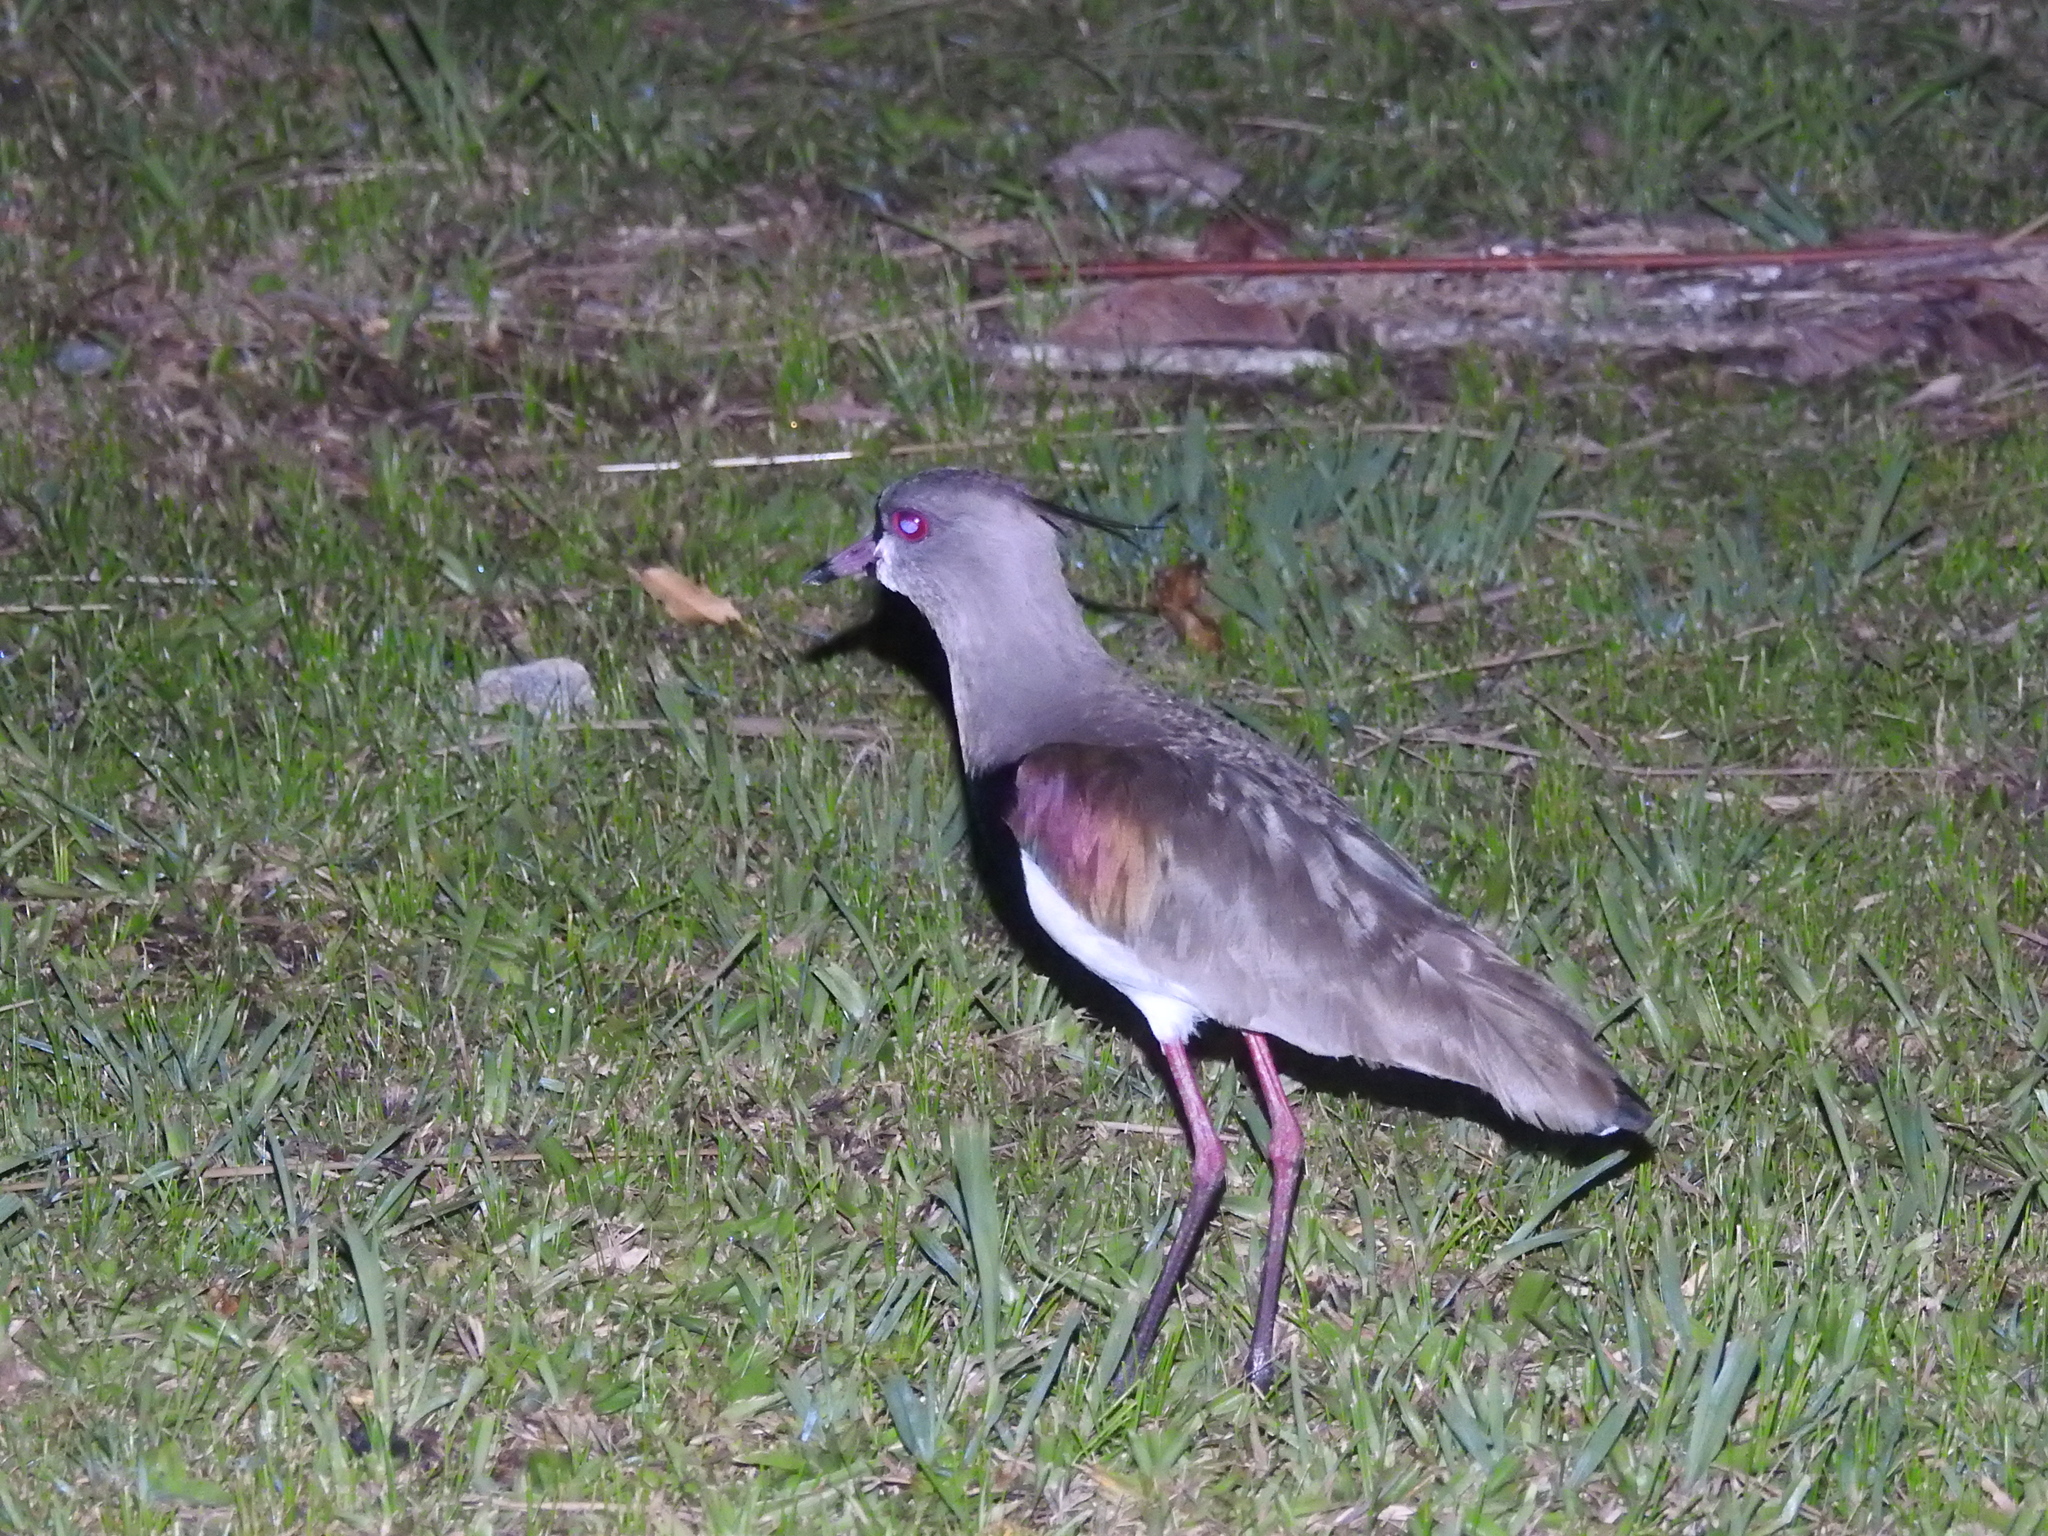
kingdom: Animalia
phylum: Chordata
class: Aves
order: Charadriiformes
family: Charadriidae
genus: Vanellus
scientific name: Vanellus chilensis
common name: Southern lapwing
